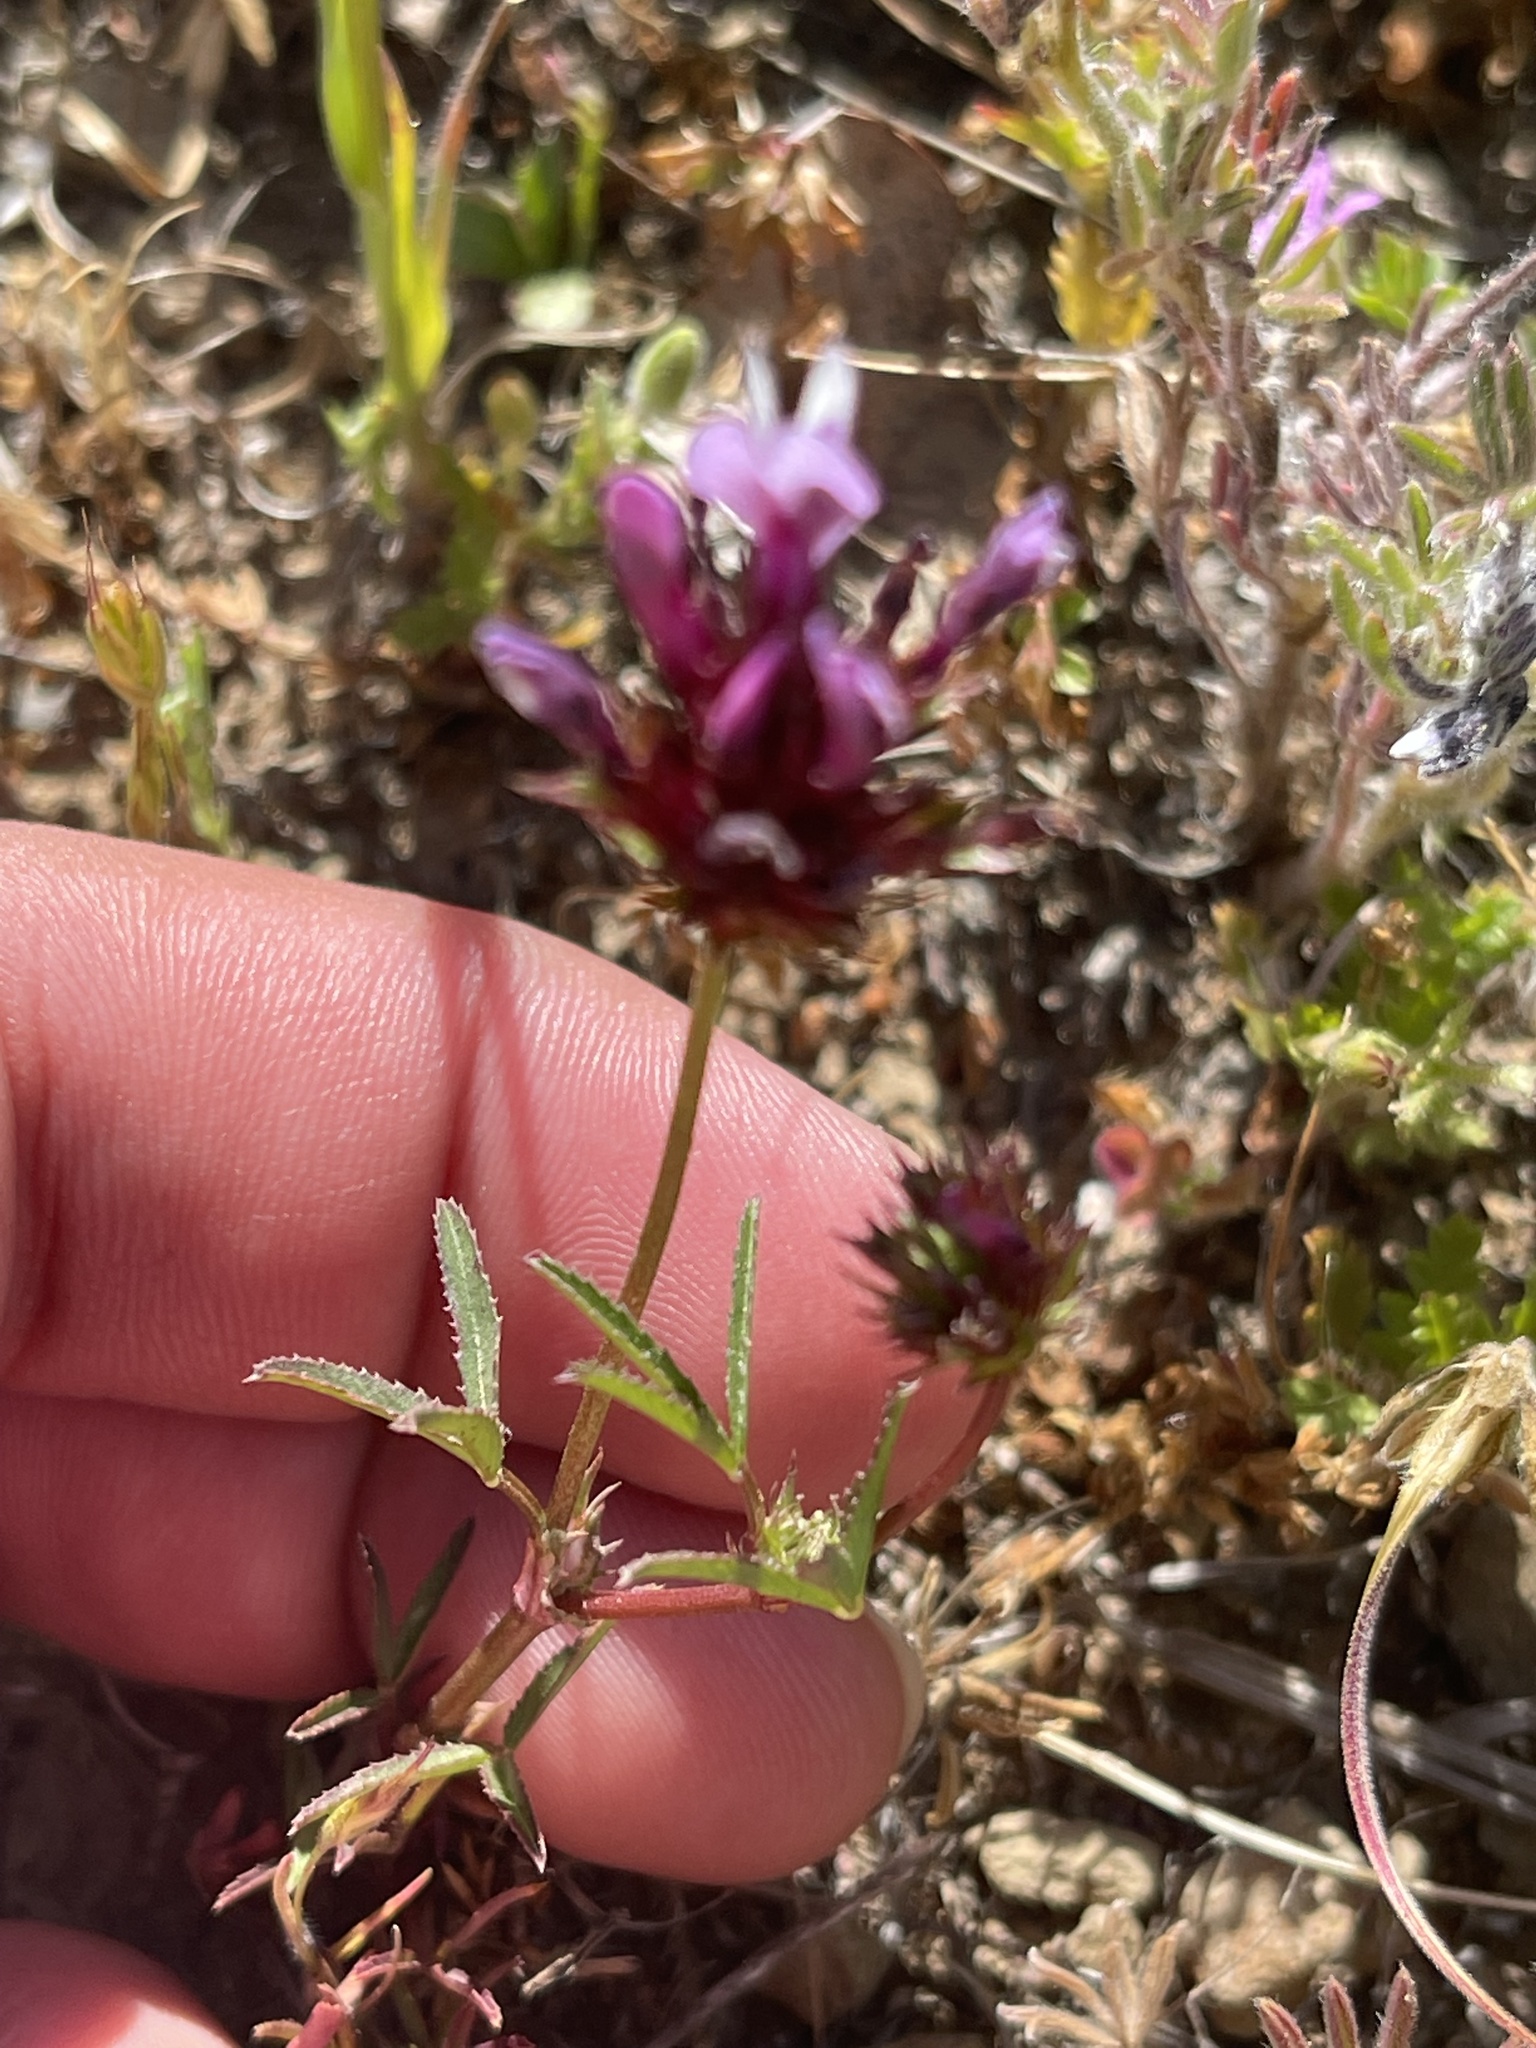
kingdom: Plantae
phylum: Tracheophyta
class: Magnoliopsida
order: Fabales
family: Fabaceae
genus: Trifolium
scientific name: Trifolium willdenovii
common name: Tomcat clover
